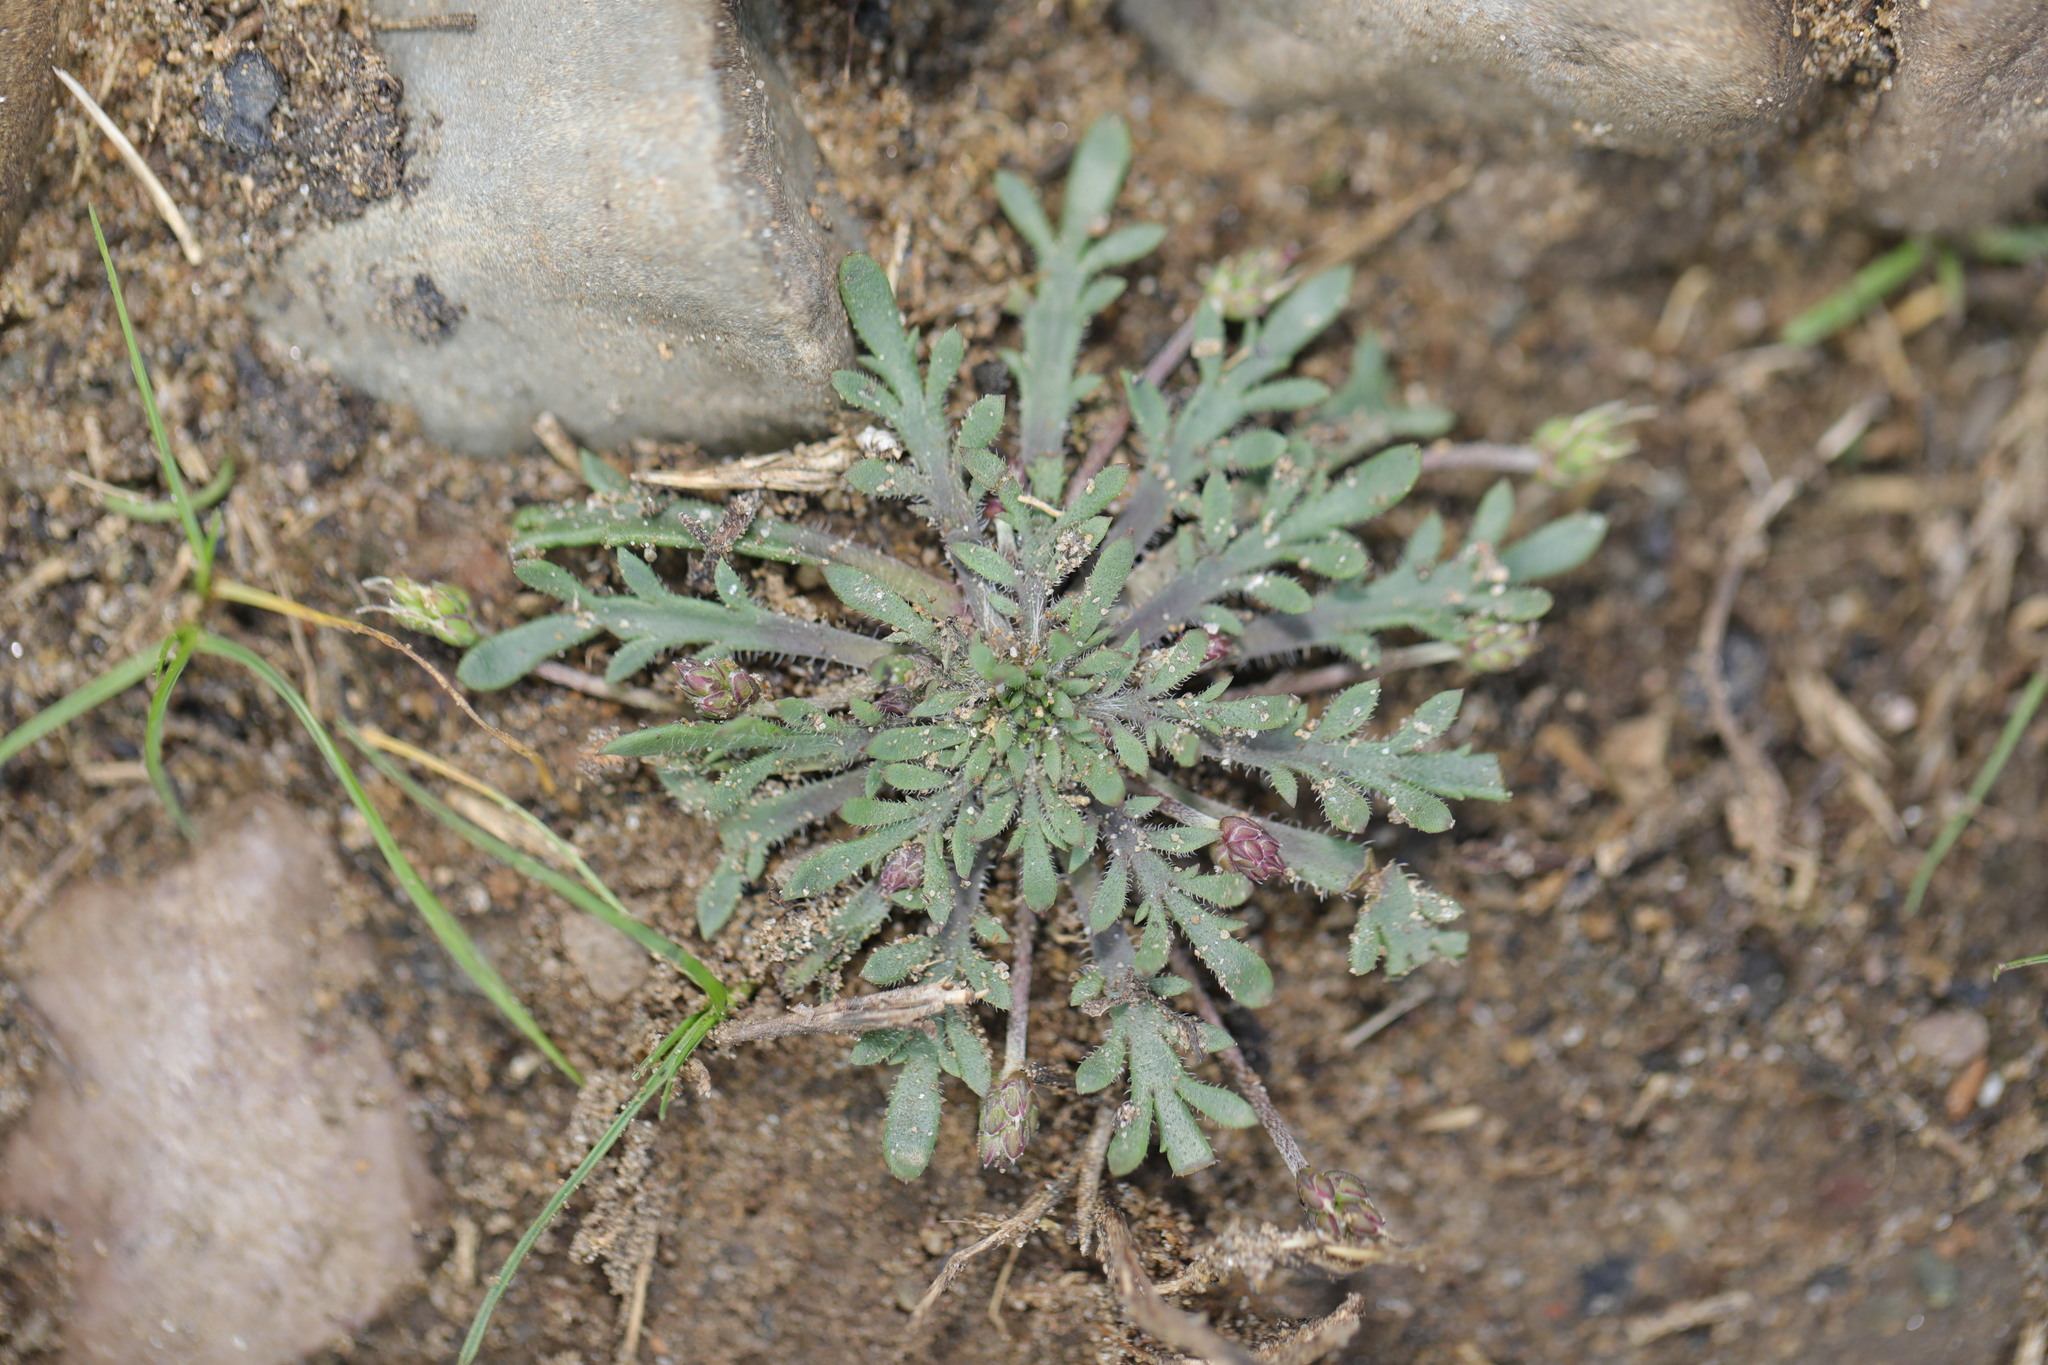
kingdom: Plantae
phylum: Tracheophyta
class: Magnoliopsida
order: Lamiales
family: Plantaginaceae
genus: Plantago
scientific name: Plantago coronopus
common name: Buck's-horn plantain
